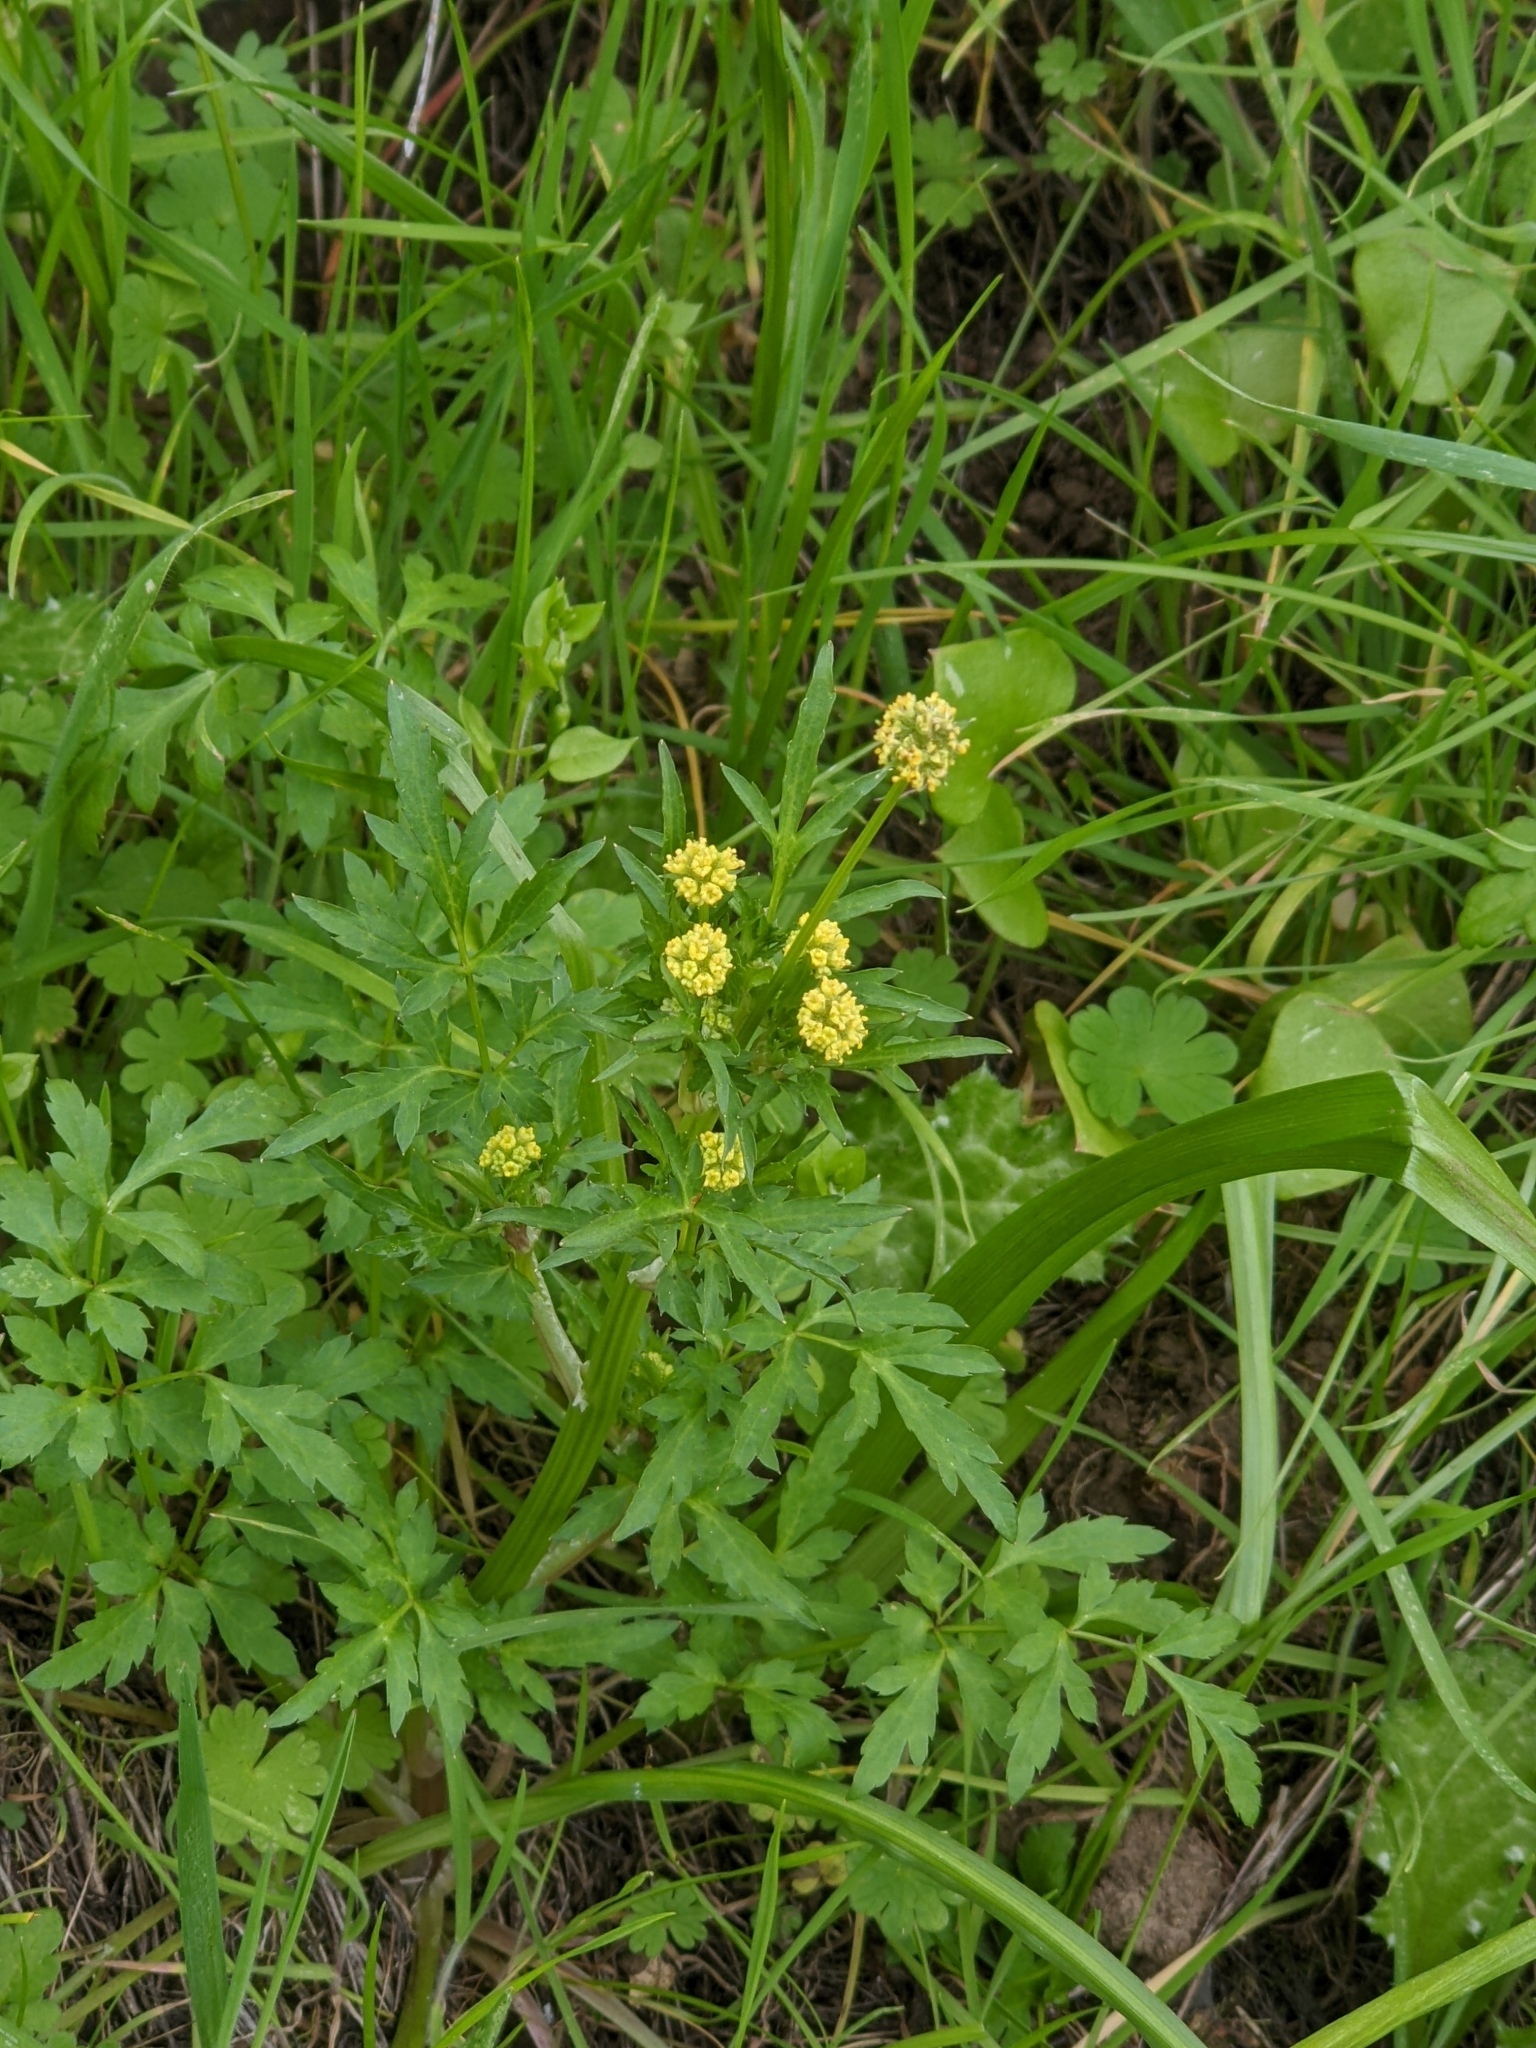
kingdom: Plantae
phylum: Tracheophyta
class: Magnoliopsida
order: Apiales
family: Apiaceae
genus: Sanicula
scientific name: Sanicula bipinnata
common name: Poison sanicle
